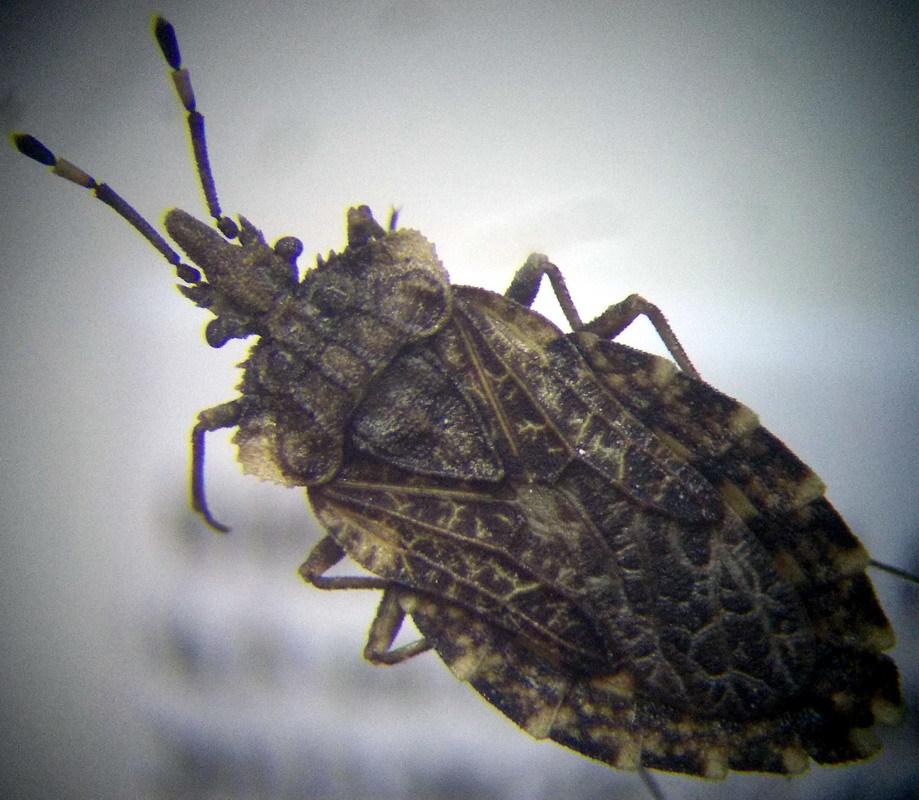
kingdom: Animalia
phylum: Arthropoda
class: Insecta
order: Hemiptera
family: Aradidae
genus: Aradus
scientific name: Aradus hieroglyphicus
